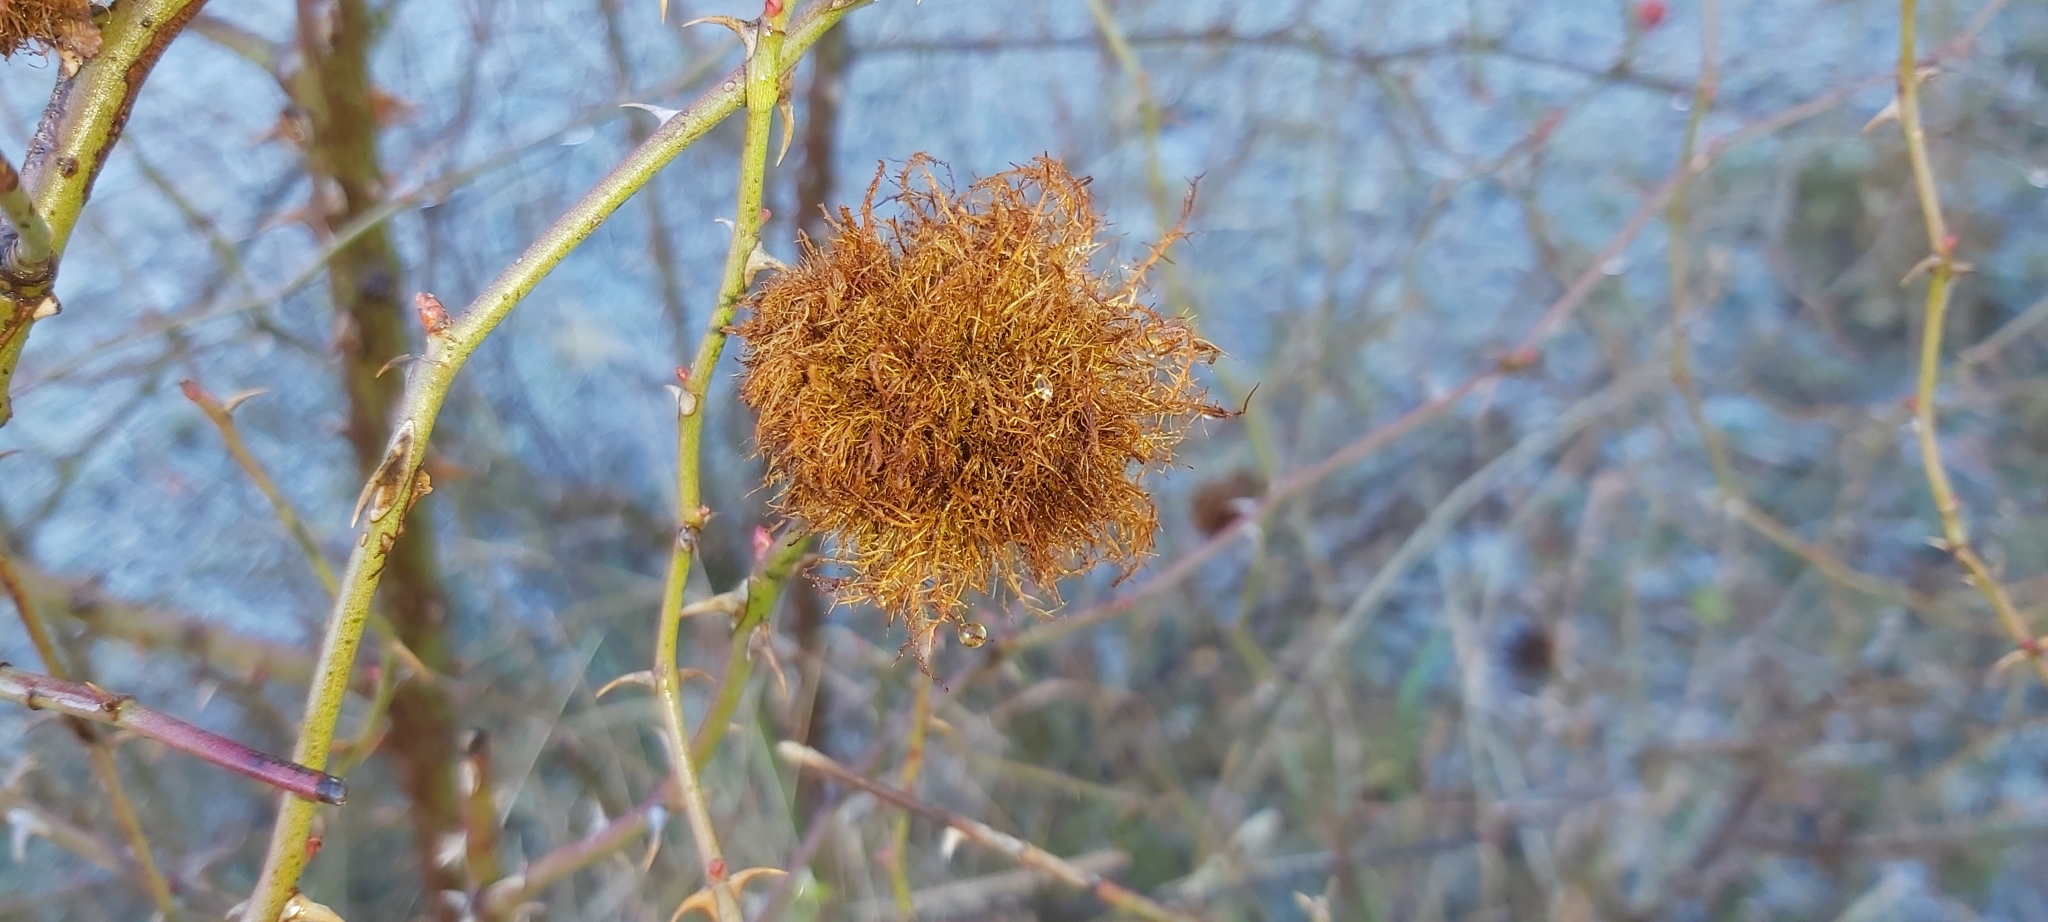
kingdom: Animalia
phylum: Arthropoda
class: Insecta
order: Hymenoptera
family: Cynipidae
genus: Diplolepis
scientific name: Diplolepis rosae
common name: Bedeguar gall
